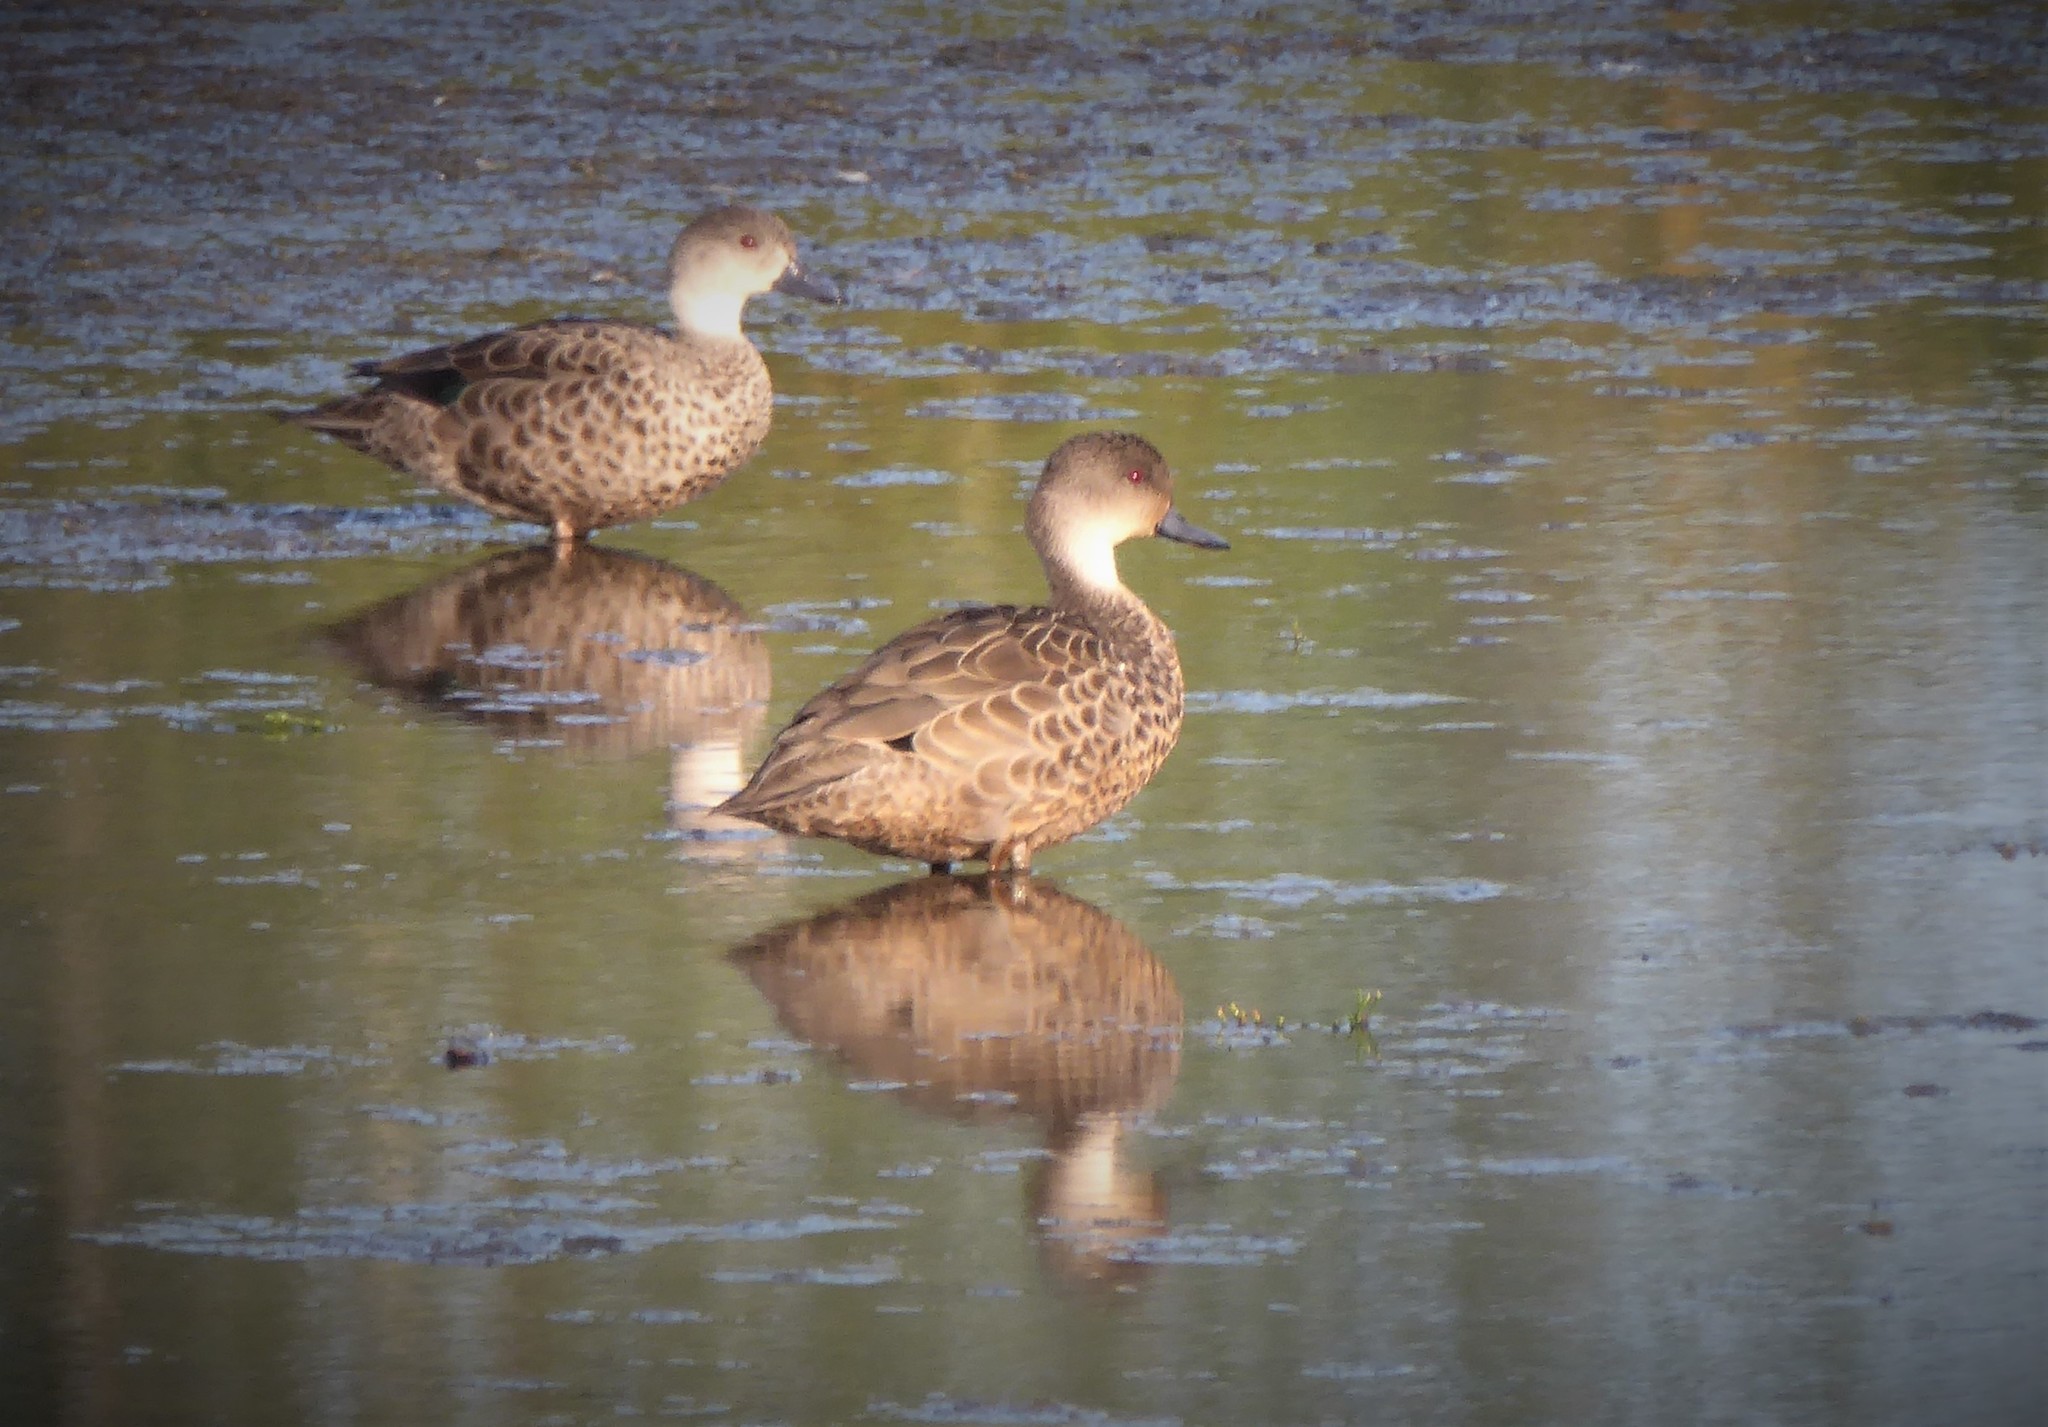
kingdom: Animalia
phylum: Chordata
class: Aves
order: Anseriformes
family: Anatidae
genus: Anas
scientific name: Anas gracilis
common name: Grey teal
